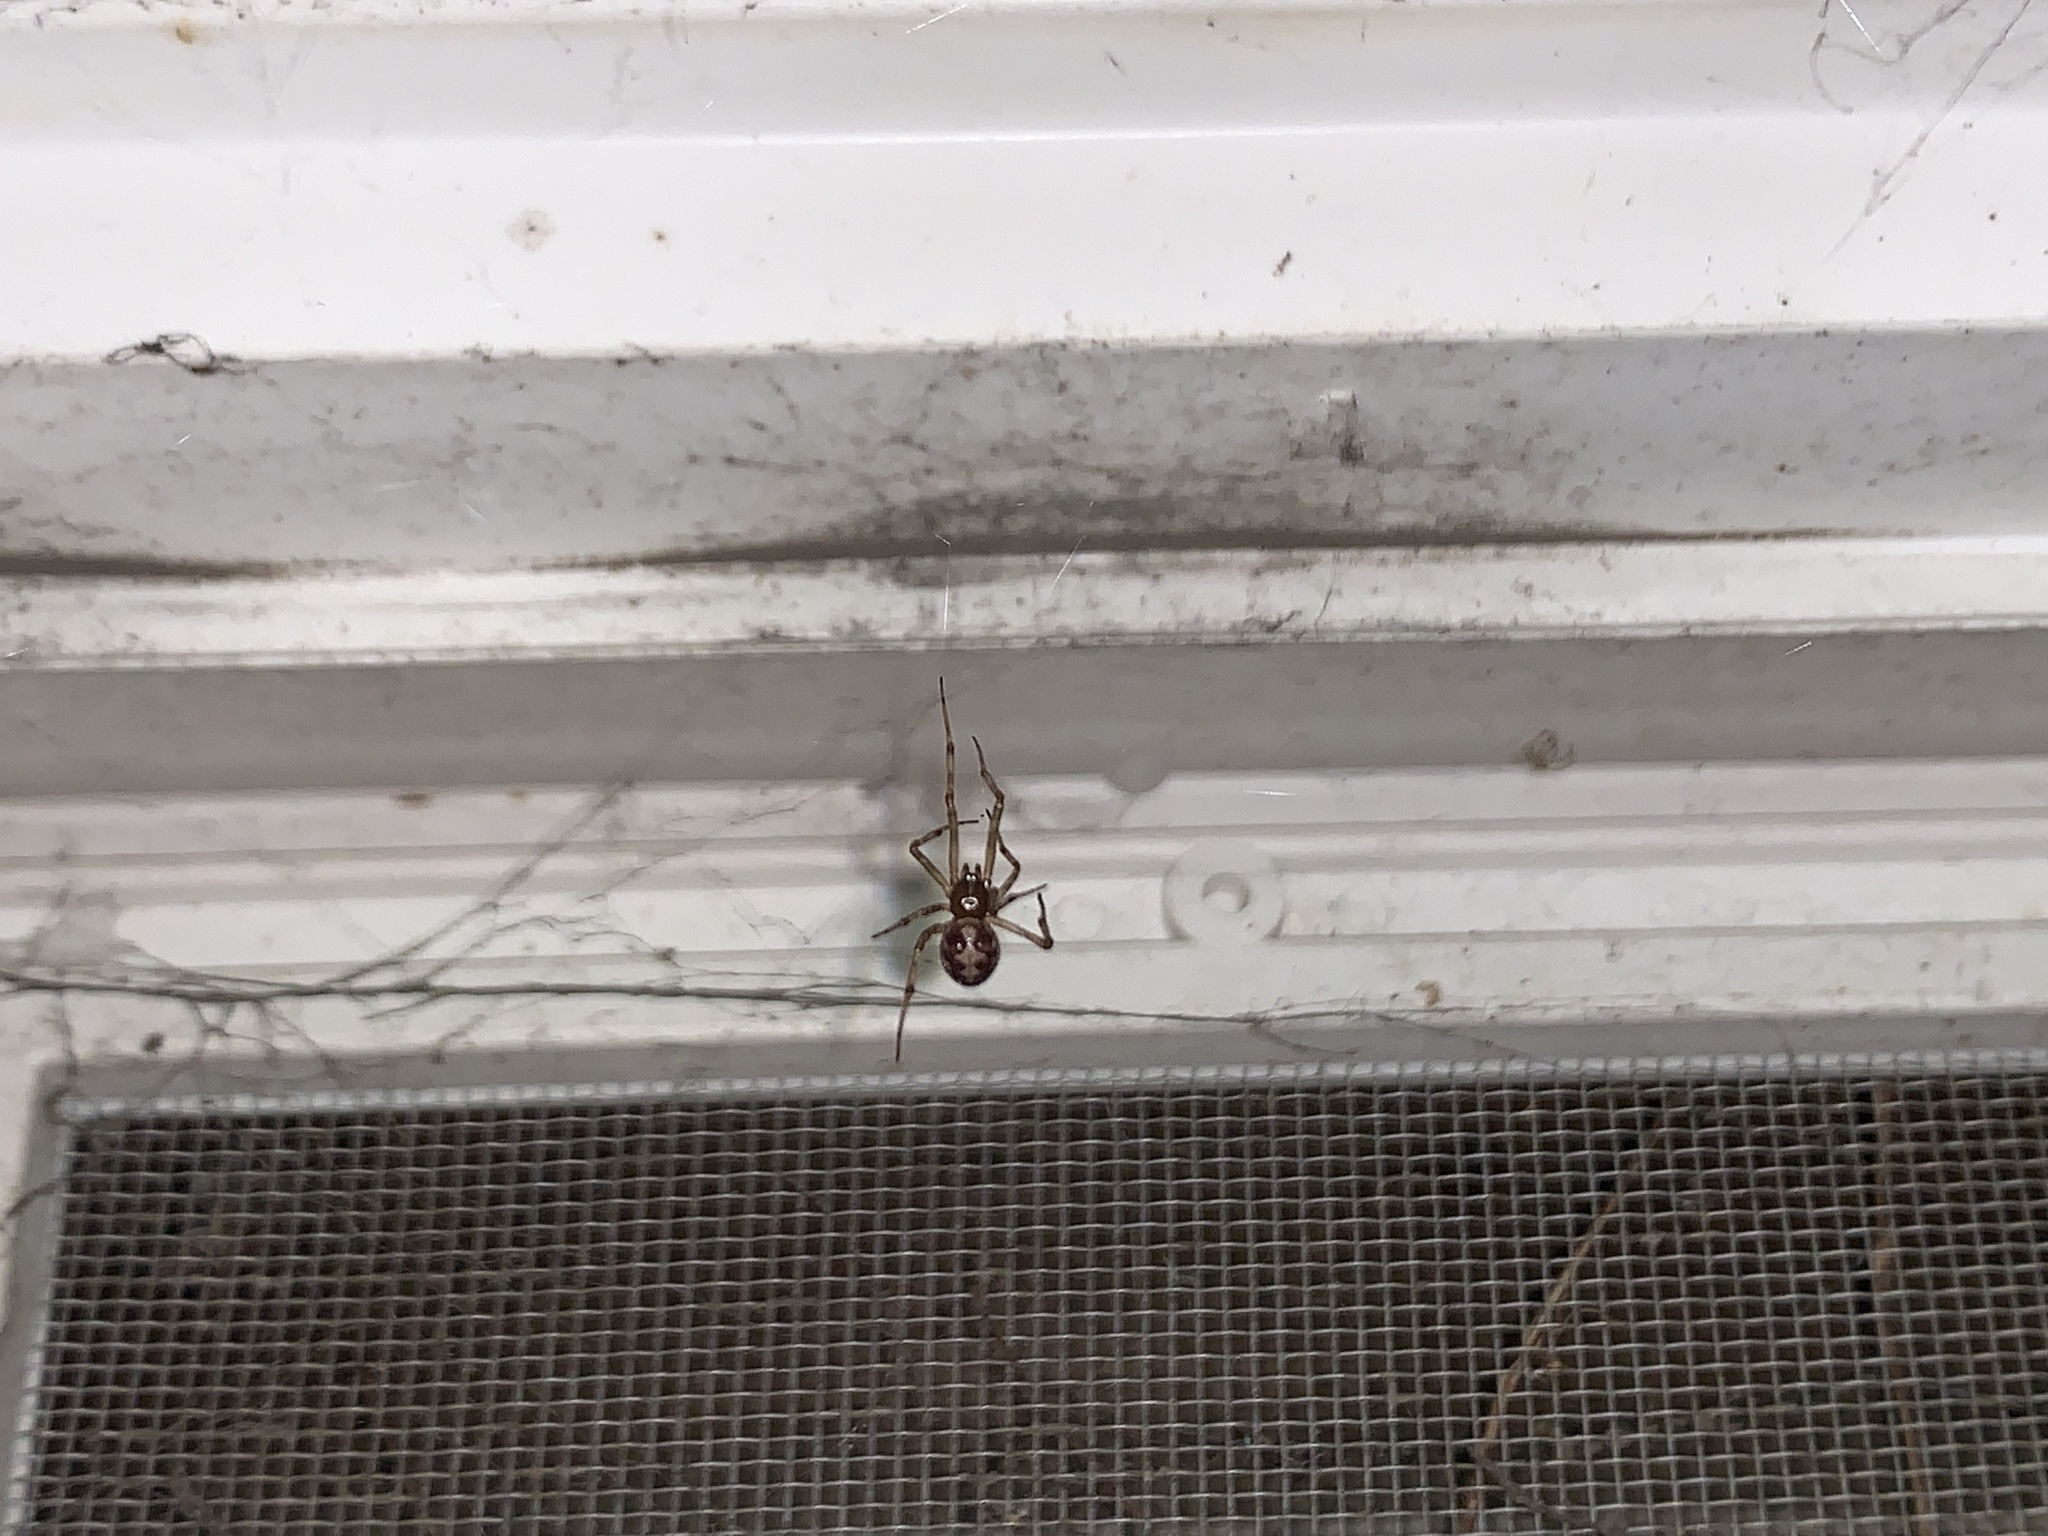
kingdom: Animalia
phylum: Arthropoda
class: Arachnida
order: Araneae
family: Theridiidae
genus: Steatoda
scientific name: Steatoda triangulosa
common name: Triangulate bud spider
